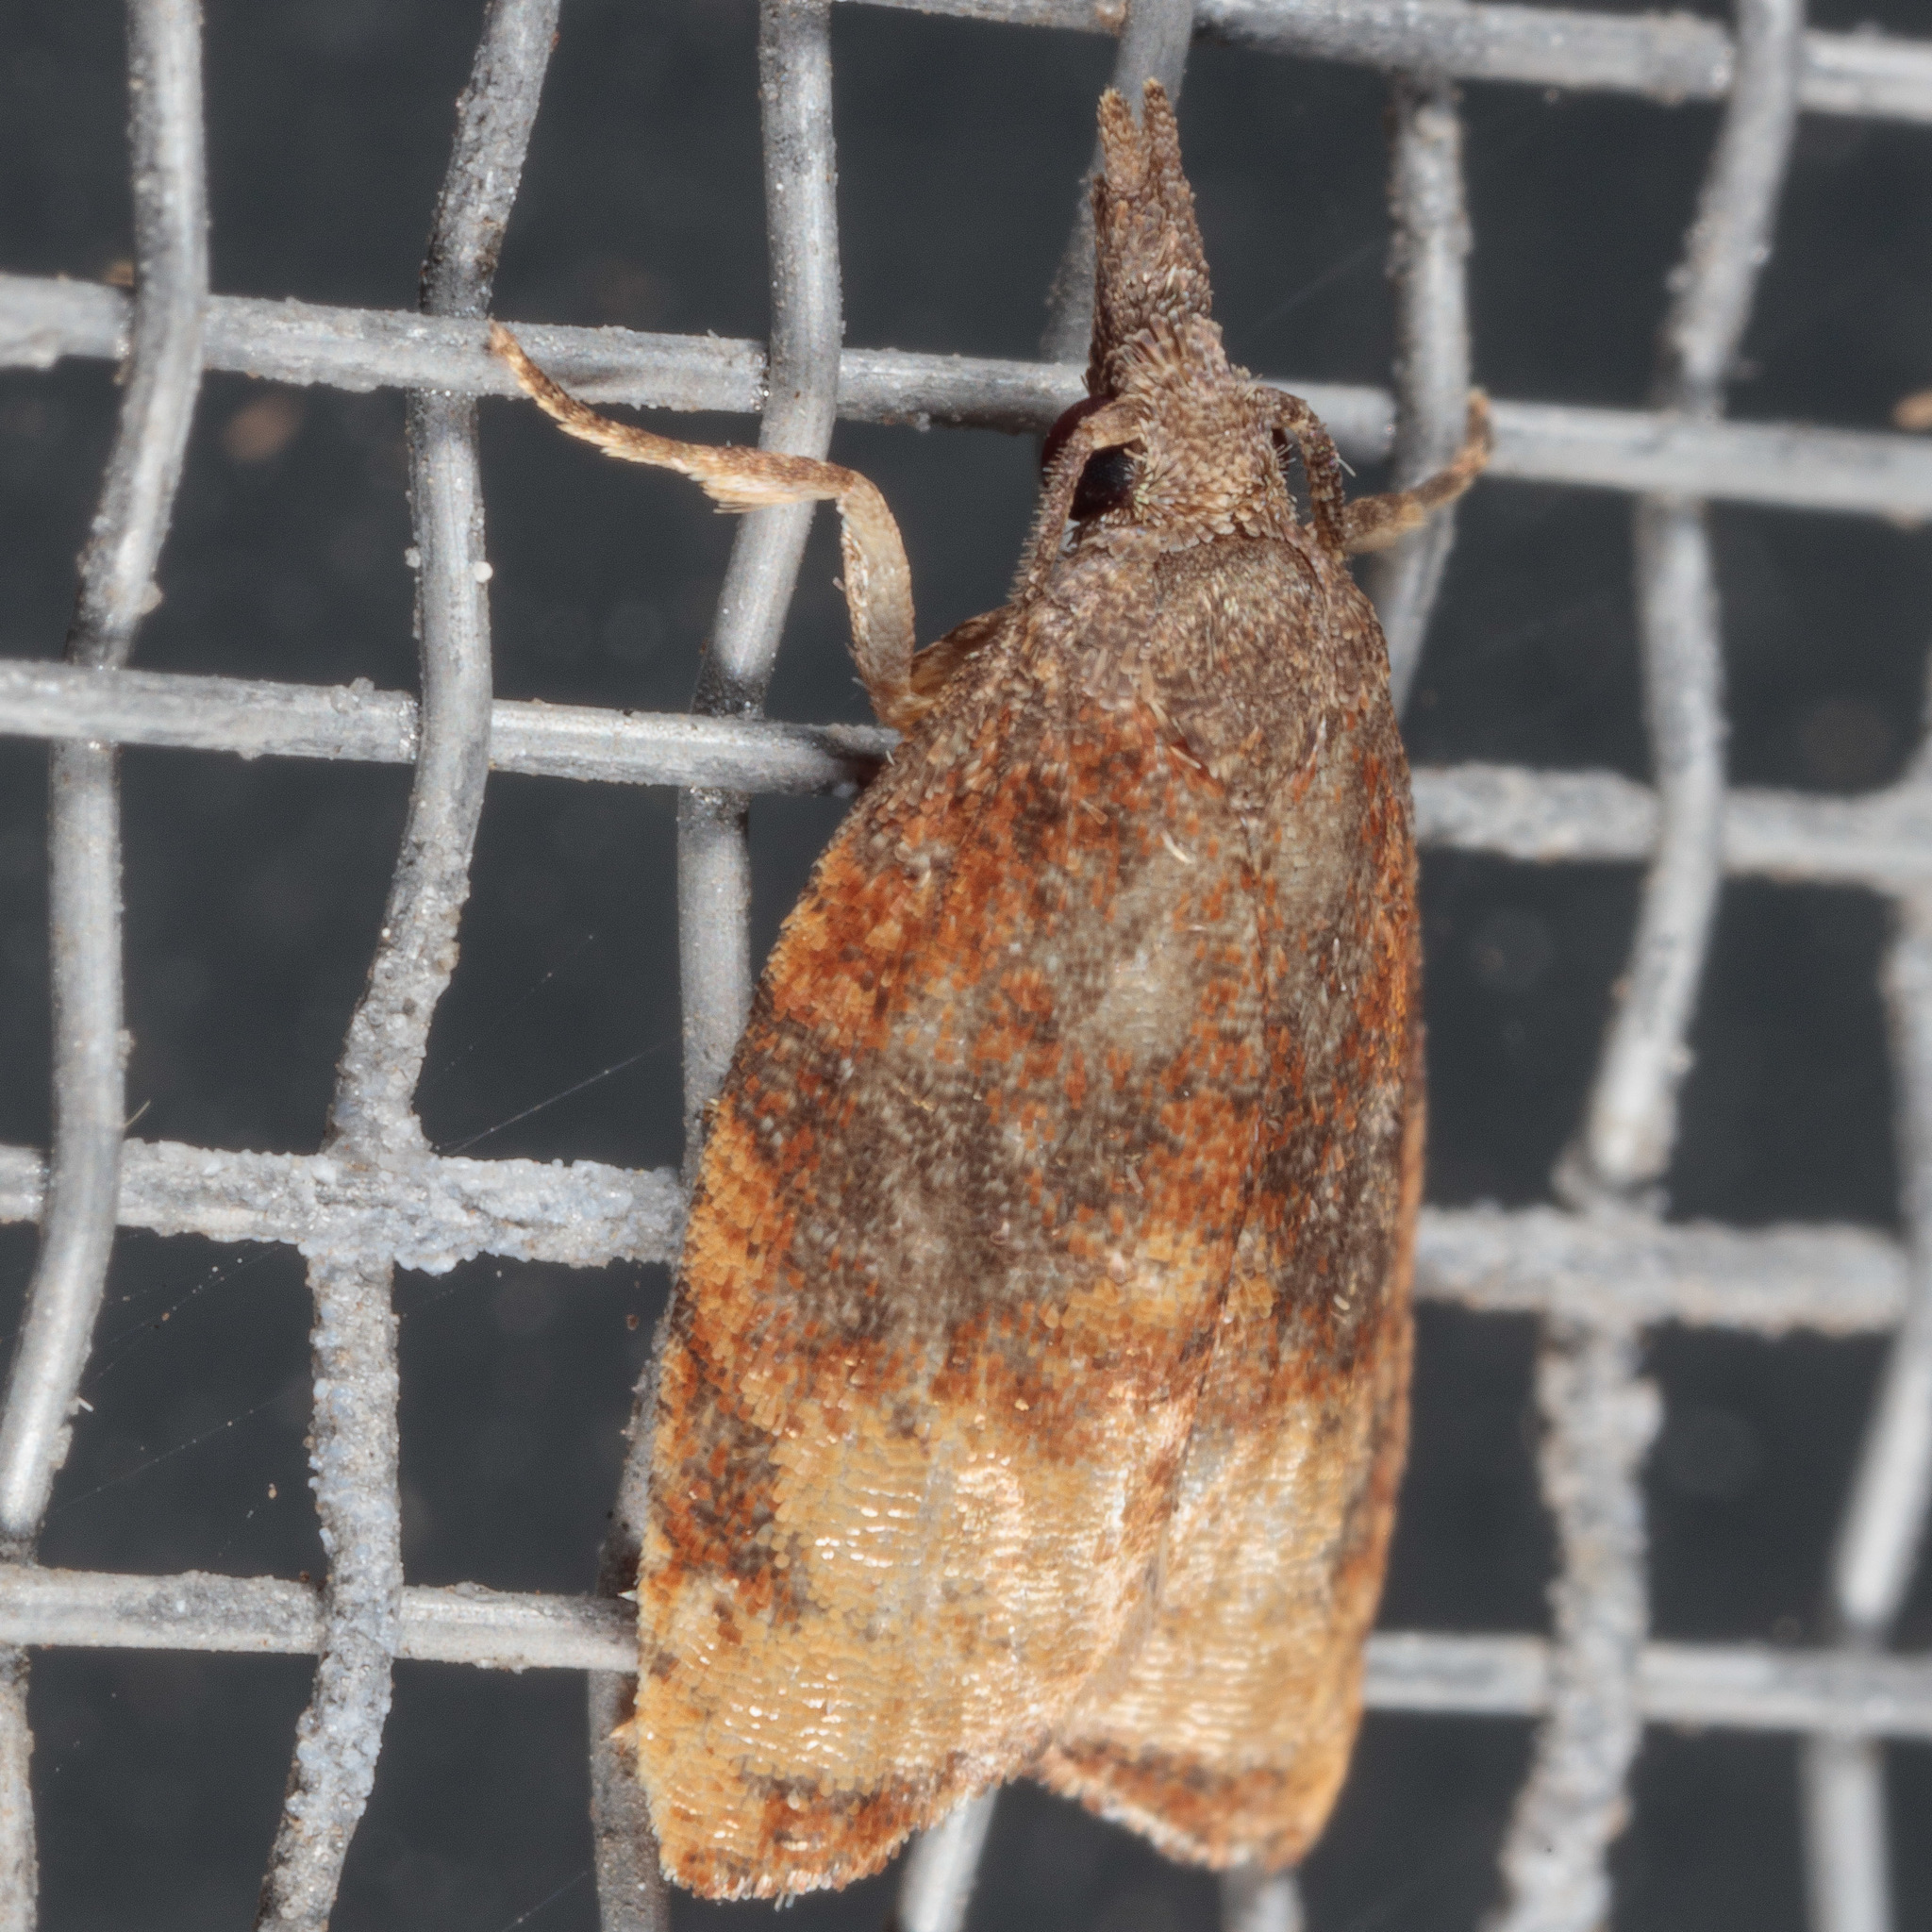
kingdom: Animalia
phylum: Arthropoda
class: Insecta
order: Lepidoptera
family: Tortricidae
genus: Platynota
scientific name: Platynota stultana
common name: Omnivorous leafroller
